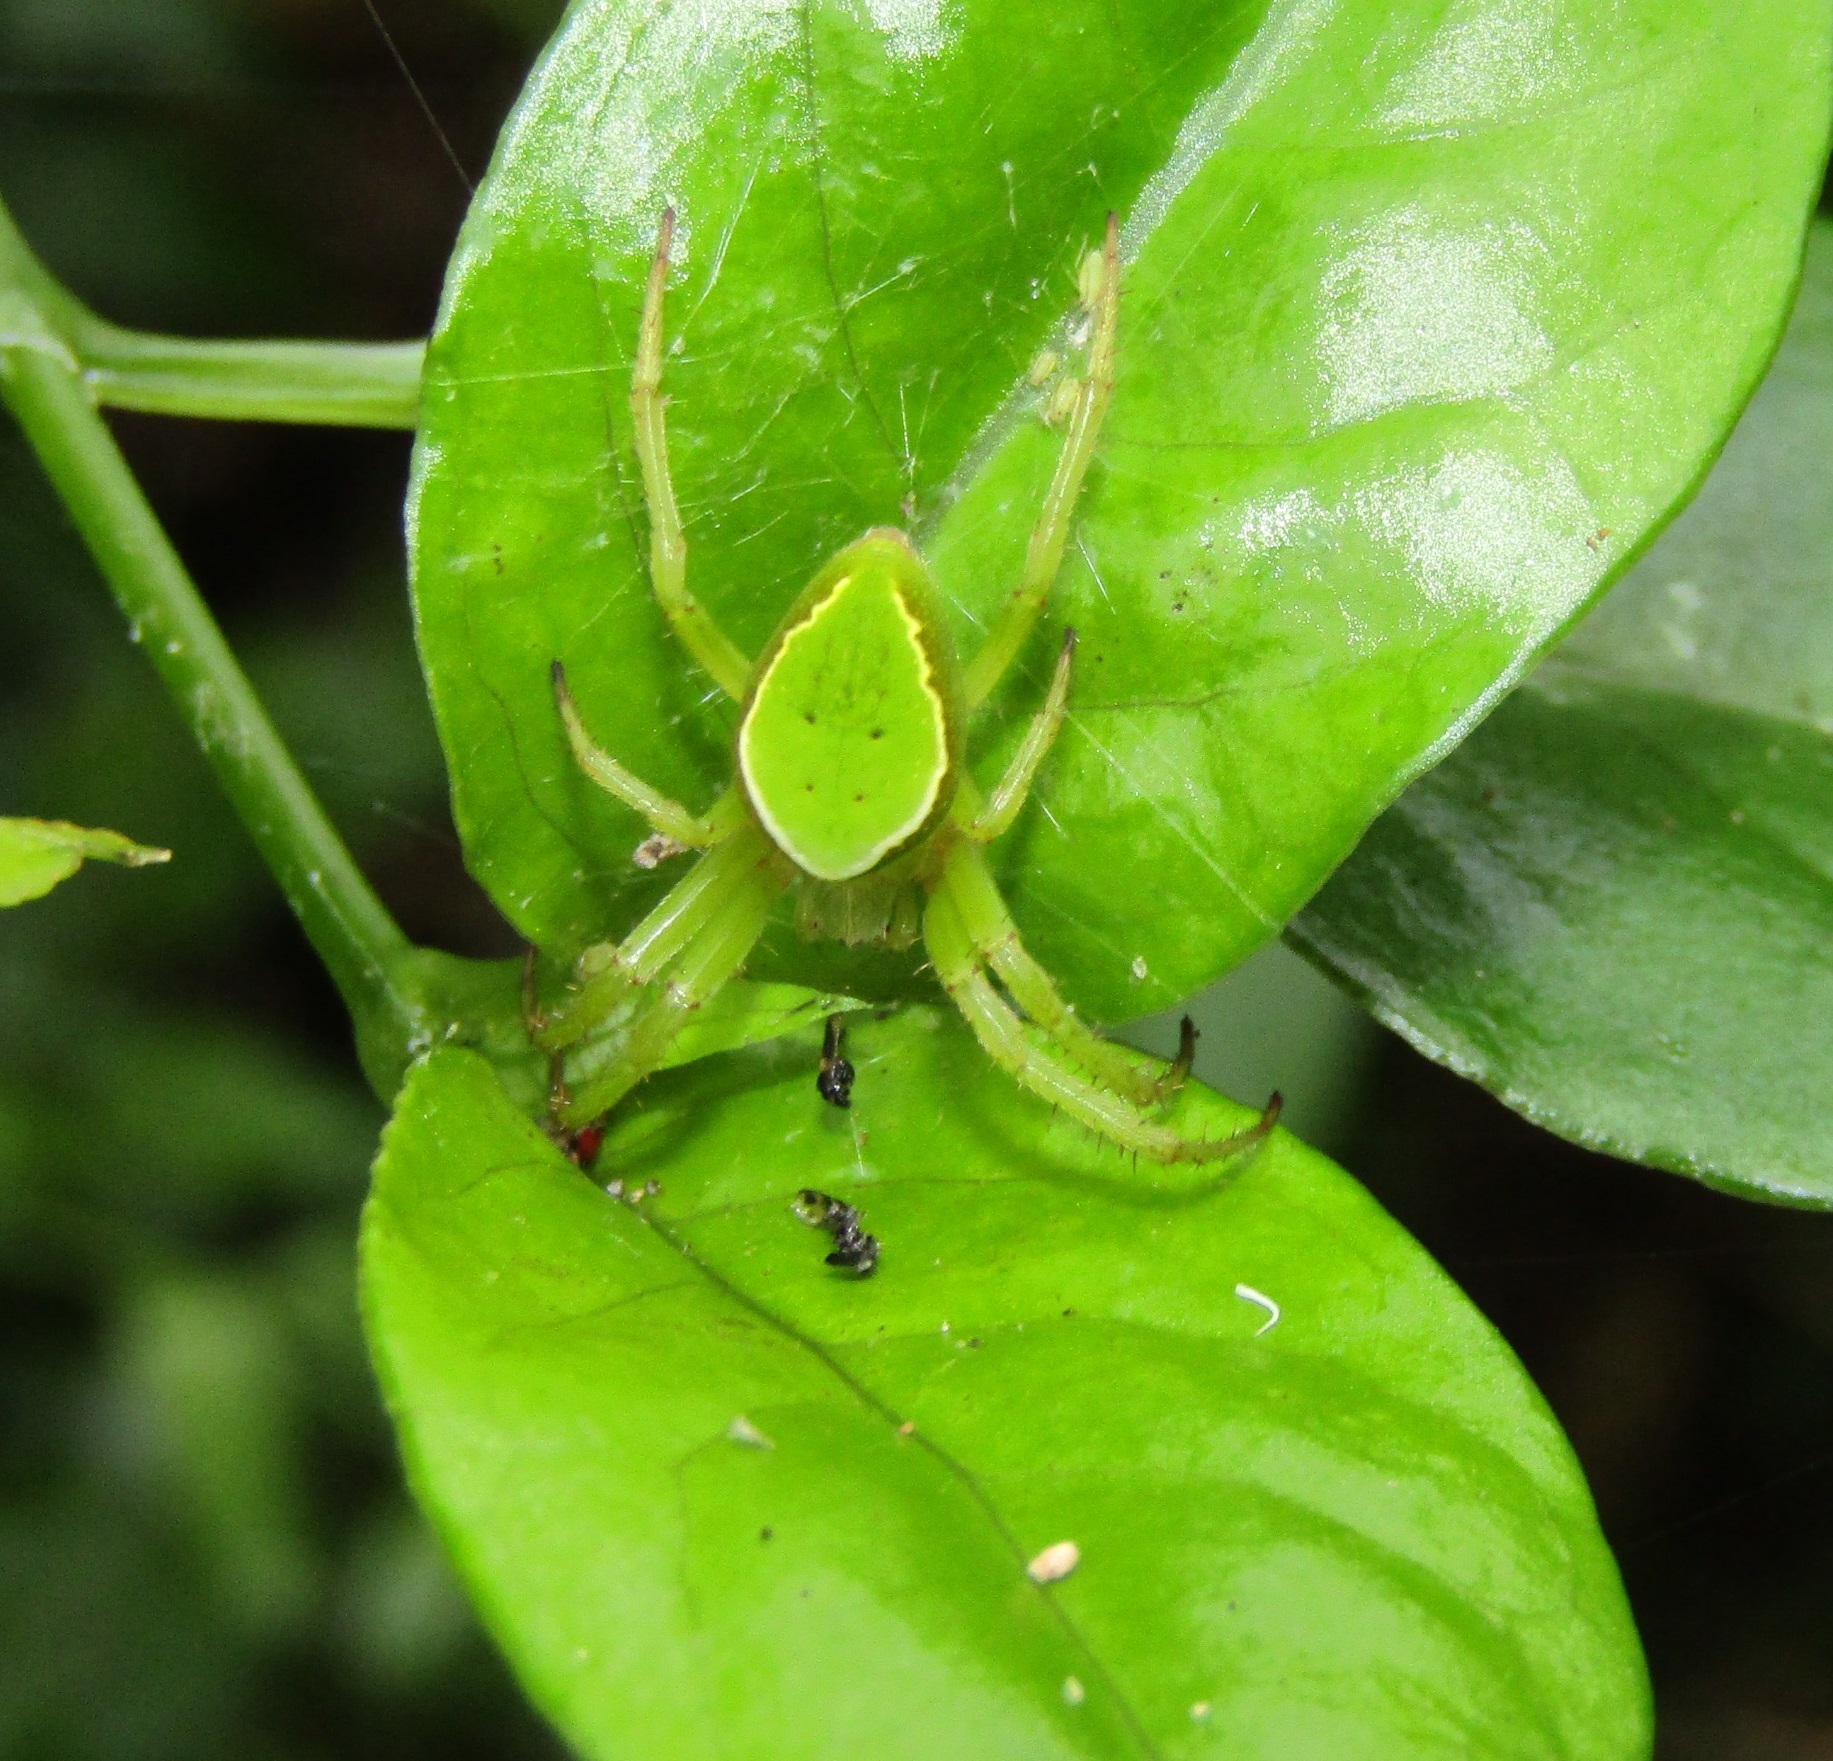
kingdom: Animalia
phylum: Arthropoda
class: Arachnida
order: Araneae
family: Araneidae
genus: Colaranea
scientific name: Colaranea viriditas
